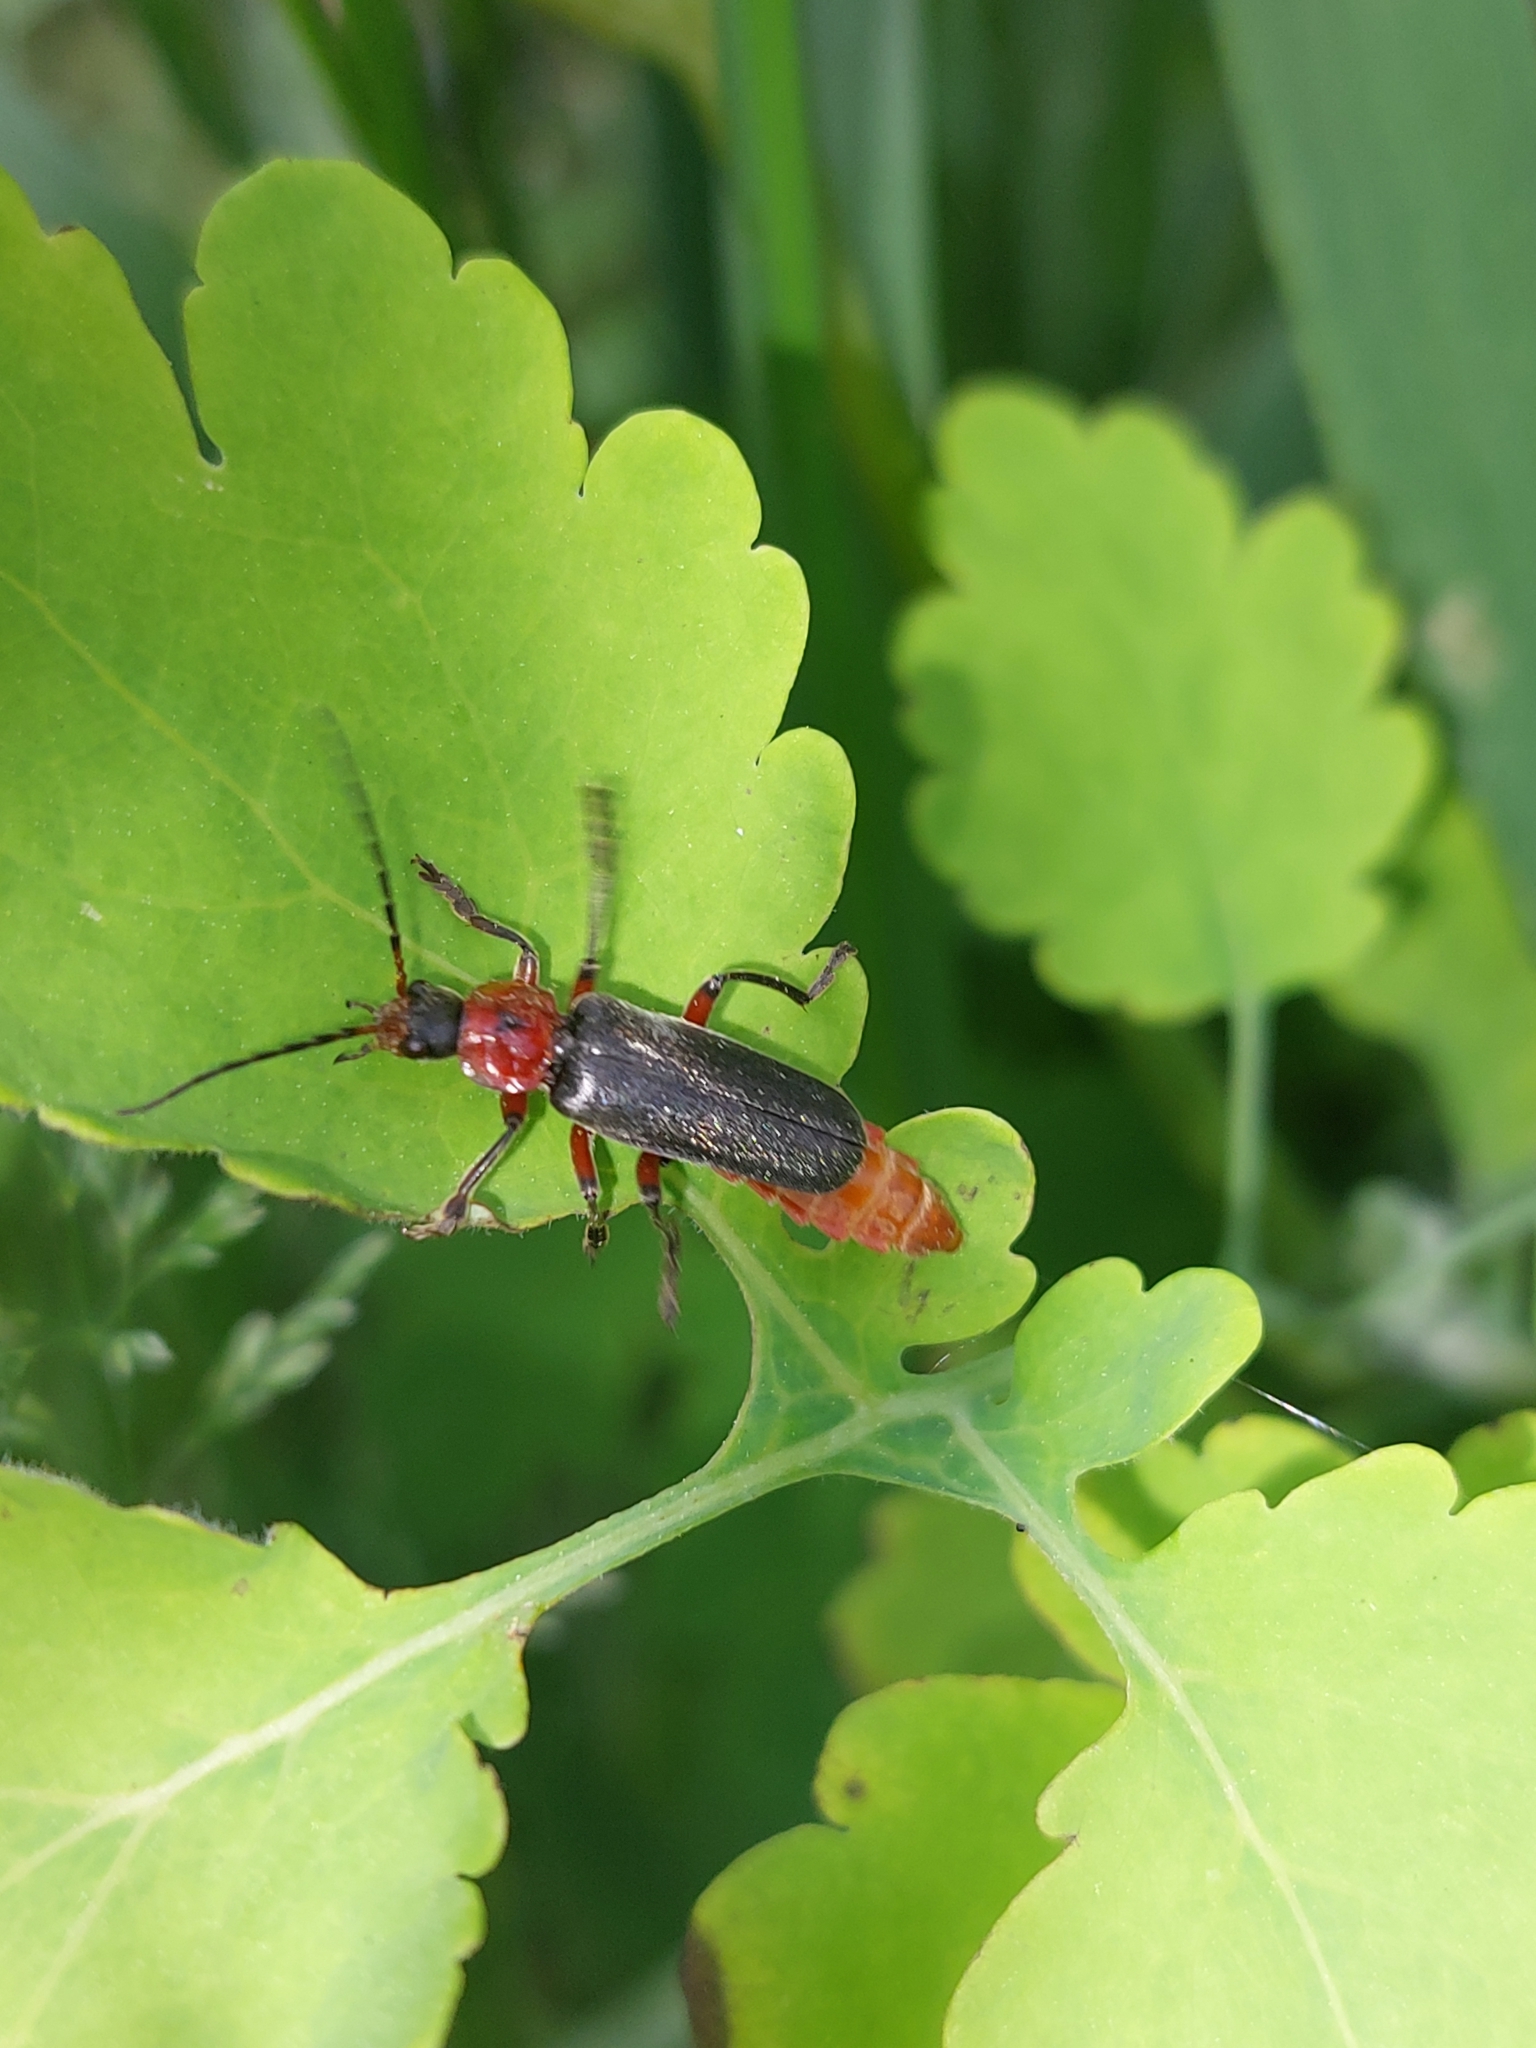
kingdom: Animalia
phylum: Arthropoda
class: Insecta
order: Coleoptera
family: Cantharidae
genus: Cantharis
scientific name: Cantharis rustica
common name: Soldier beetle
